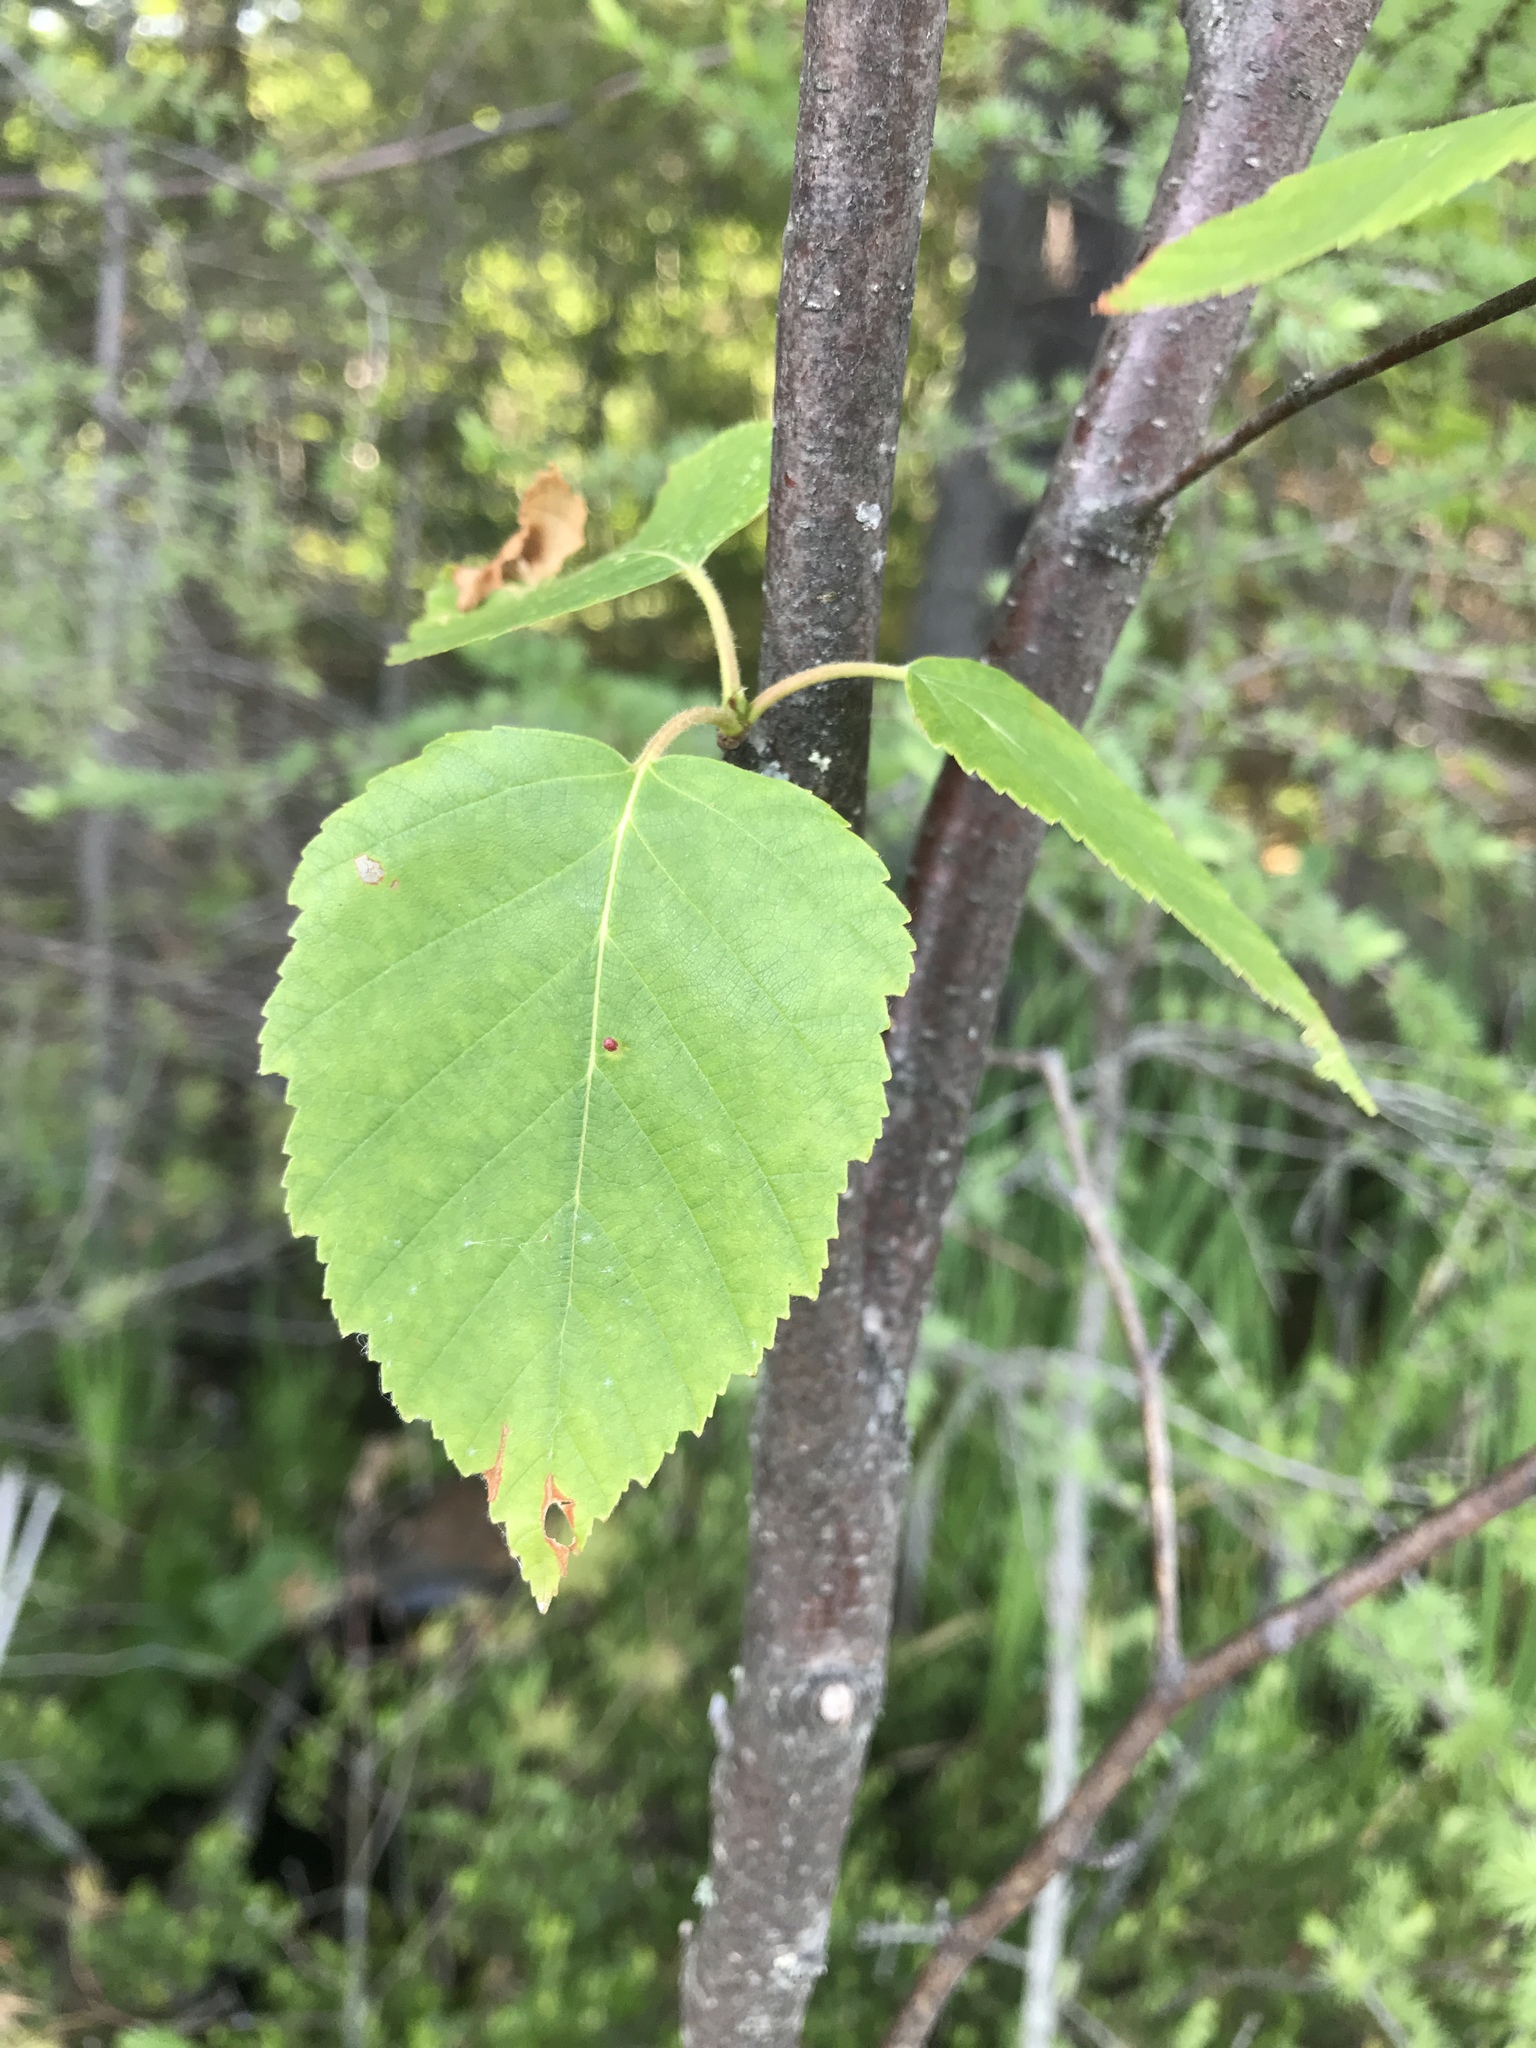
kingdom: Plantae
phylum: Tracheophyta
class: Magnoliopsida
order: Fagales
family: Betulaceae
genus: Betula
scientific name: Betula papyrifera
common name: Paper birch
